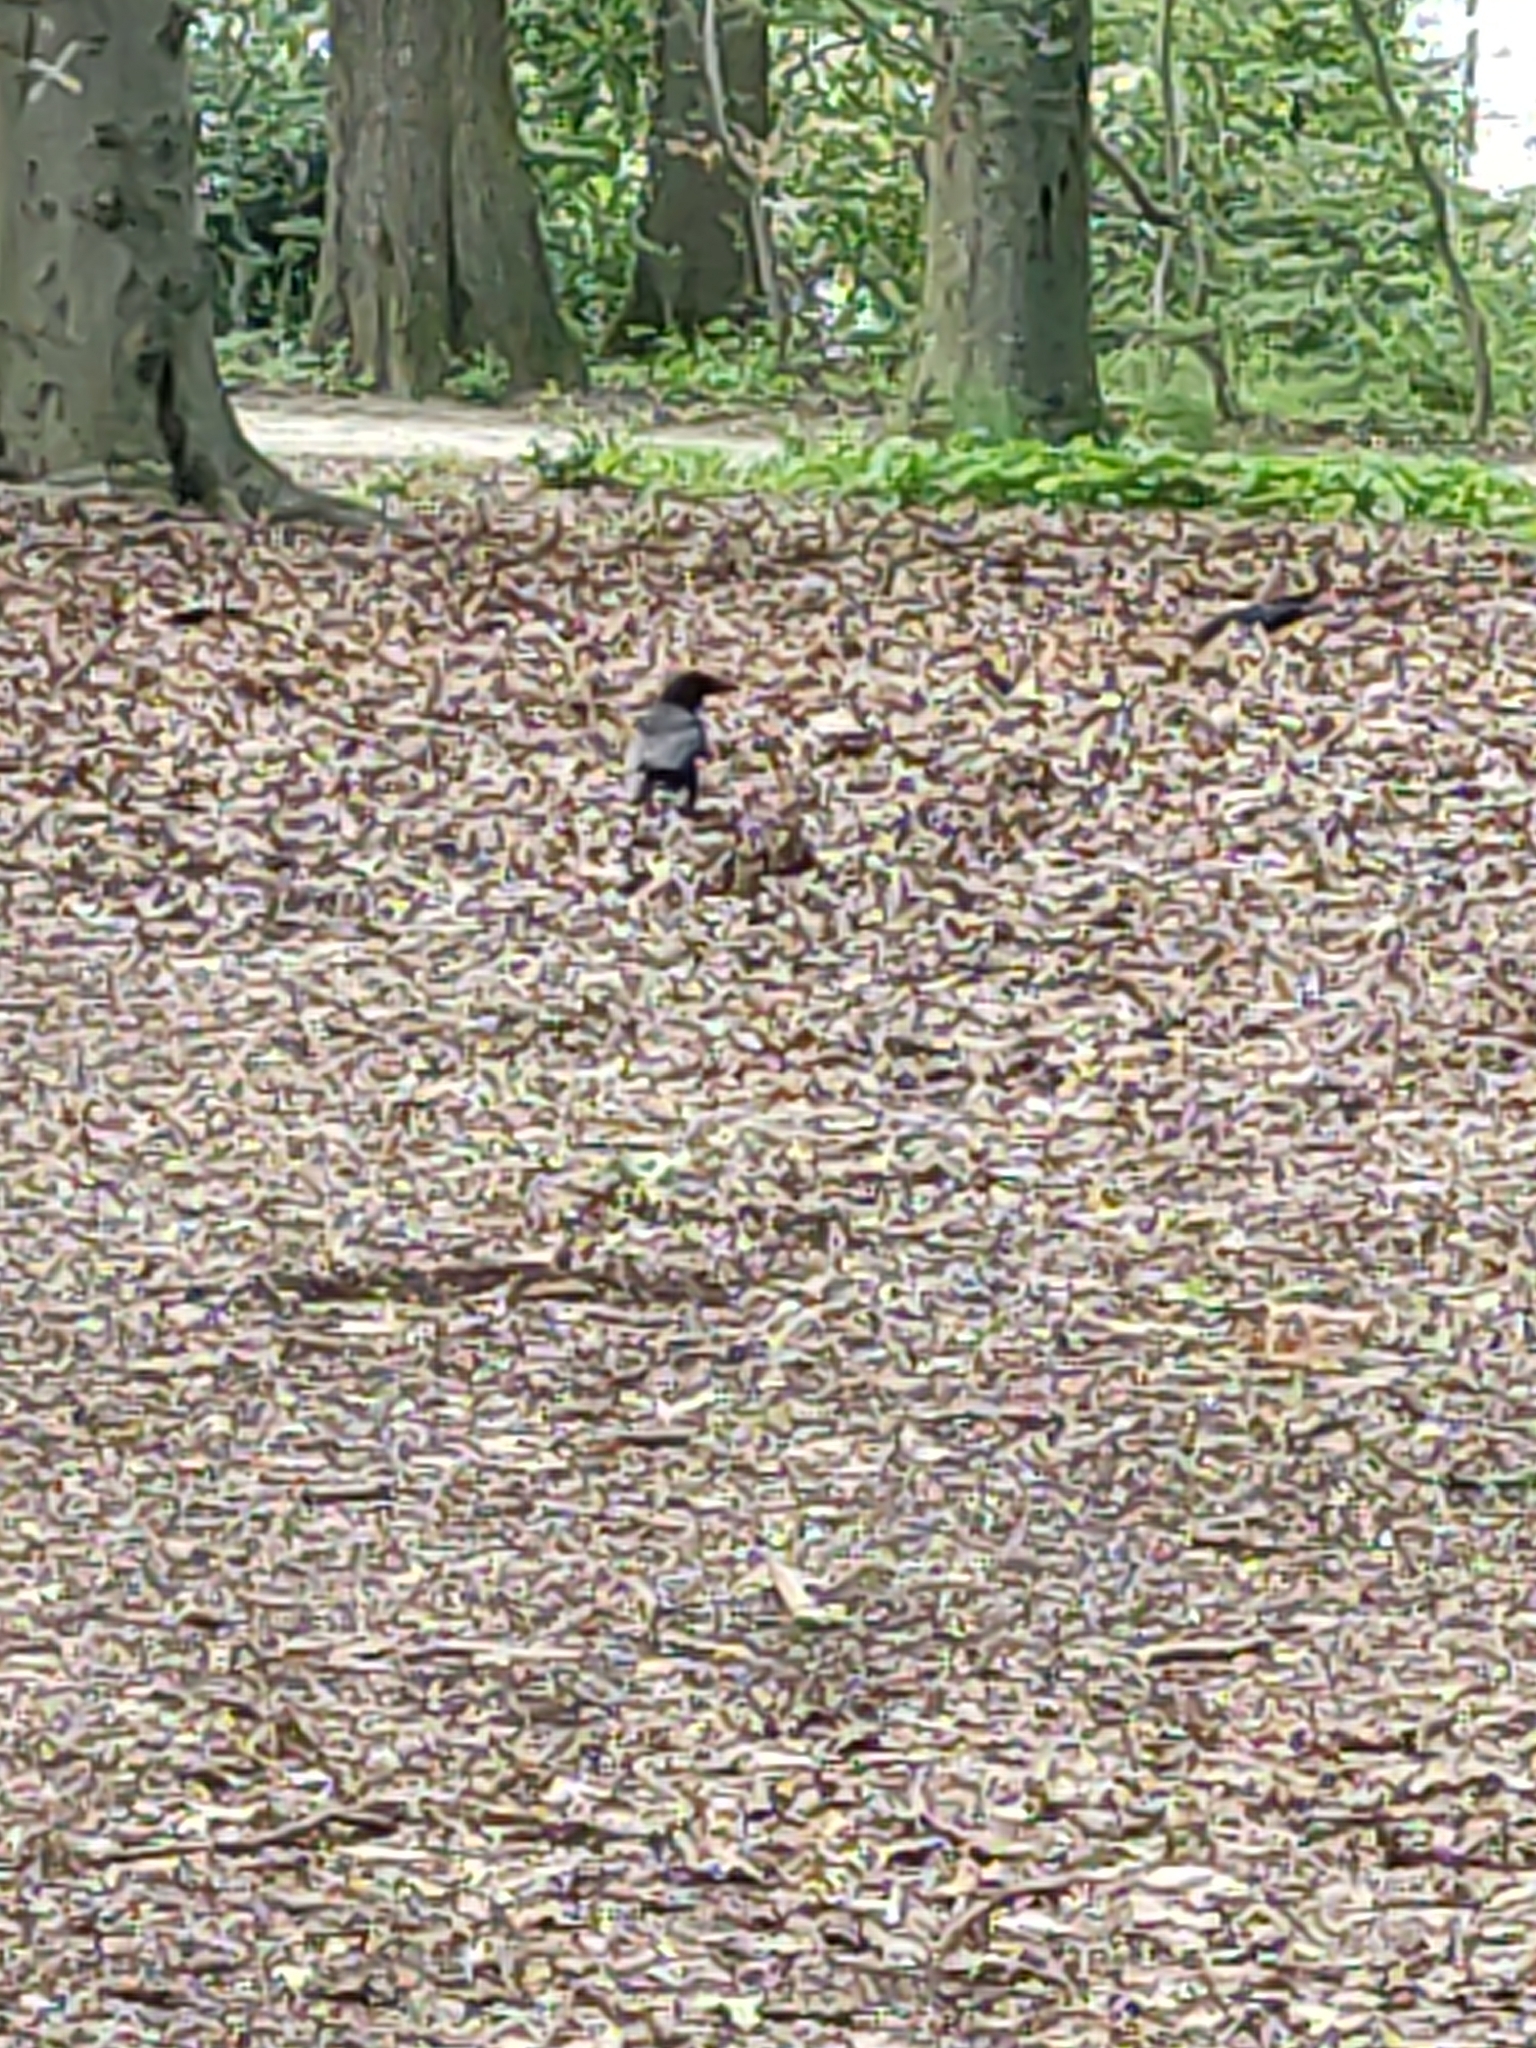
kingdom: Animalia
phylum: Chordata
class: Aves
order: Passeriformes
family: Corvidae
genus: Corvus
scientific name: Corvus corone
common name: Carrion crow
